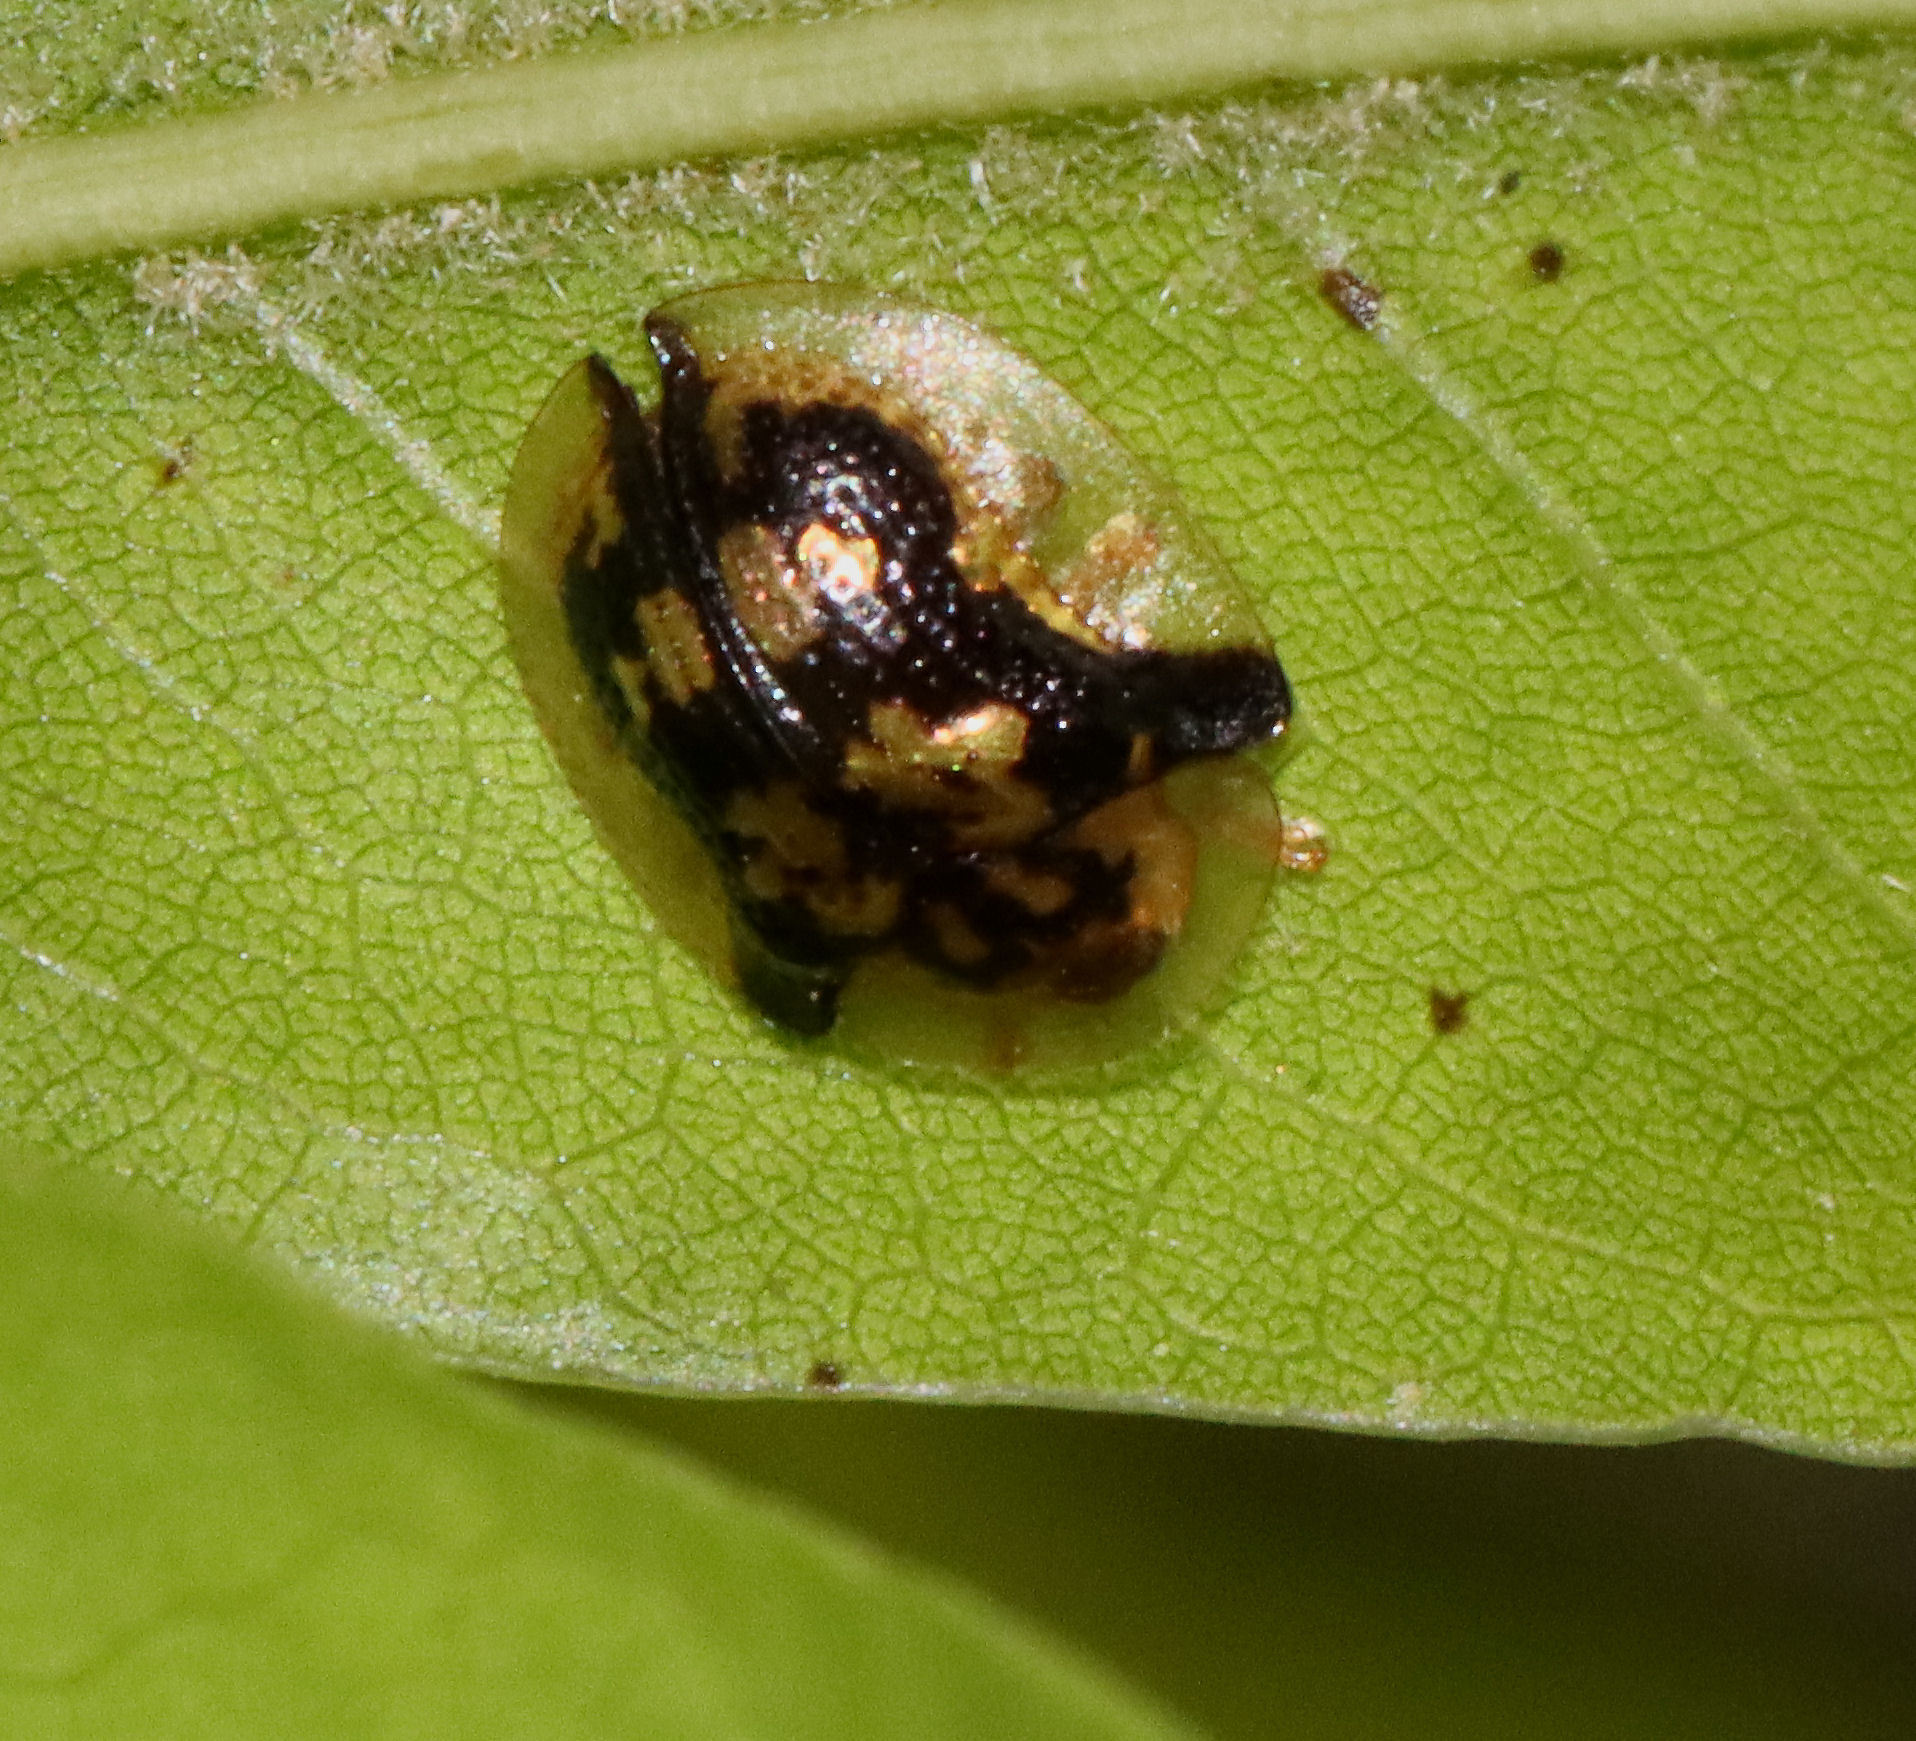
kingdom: Animalia
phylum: Arthropoda
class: Insecta
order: Coleoptera
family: Chrysomelidae
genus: Deloyala
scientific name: Deloyala guttata
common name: Mottled tortoise beetle
